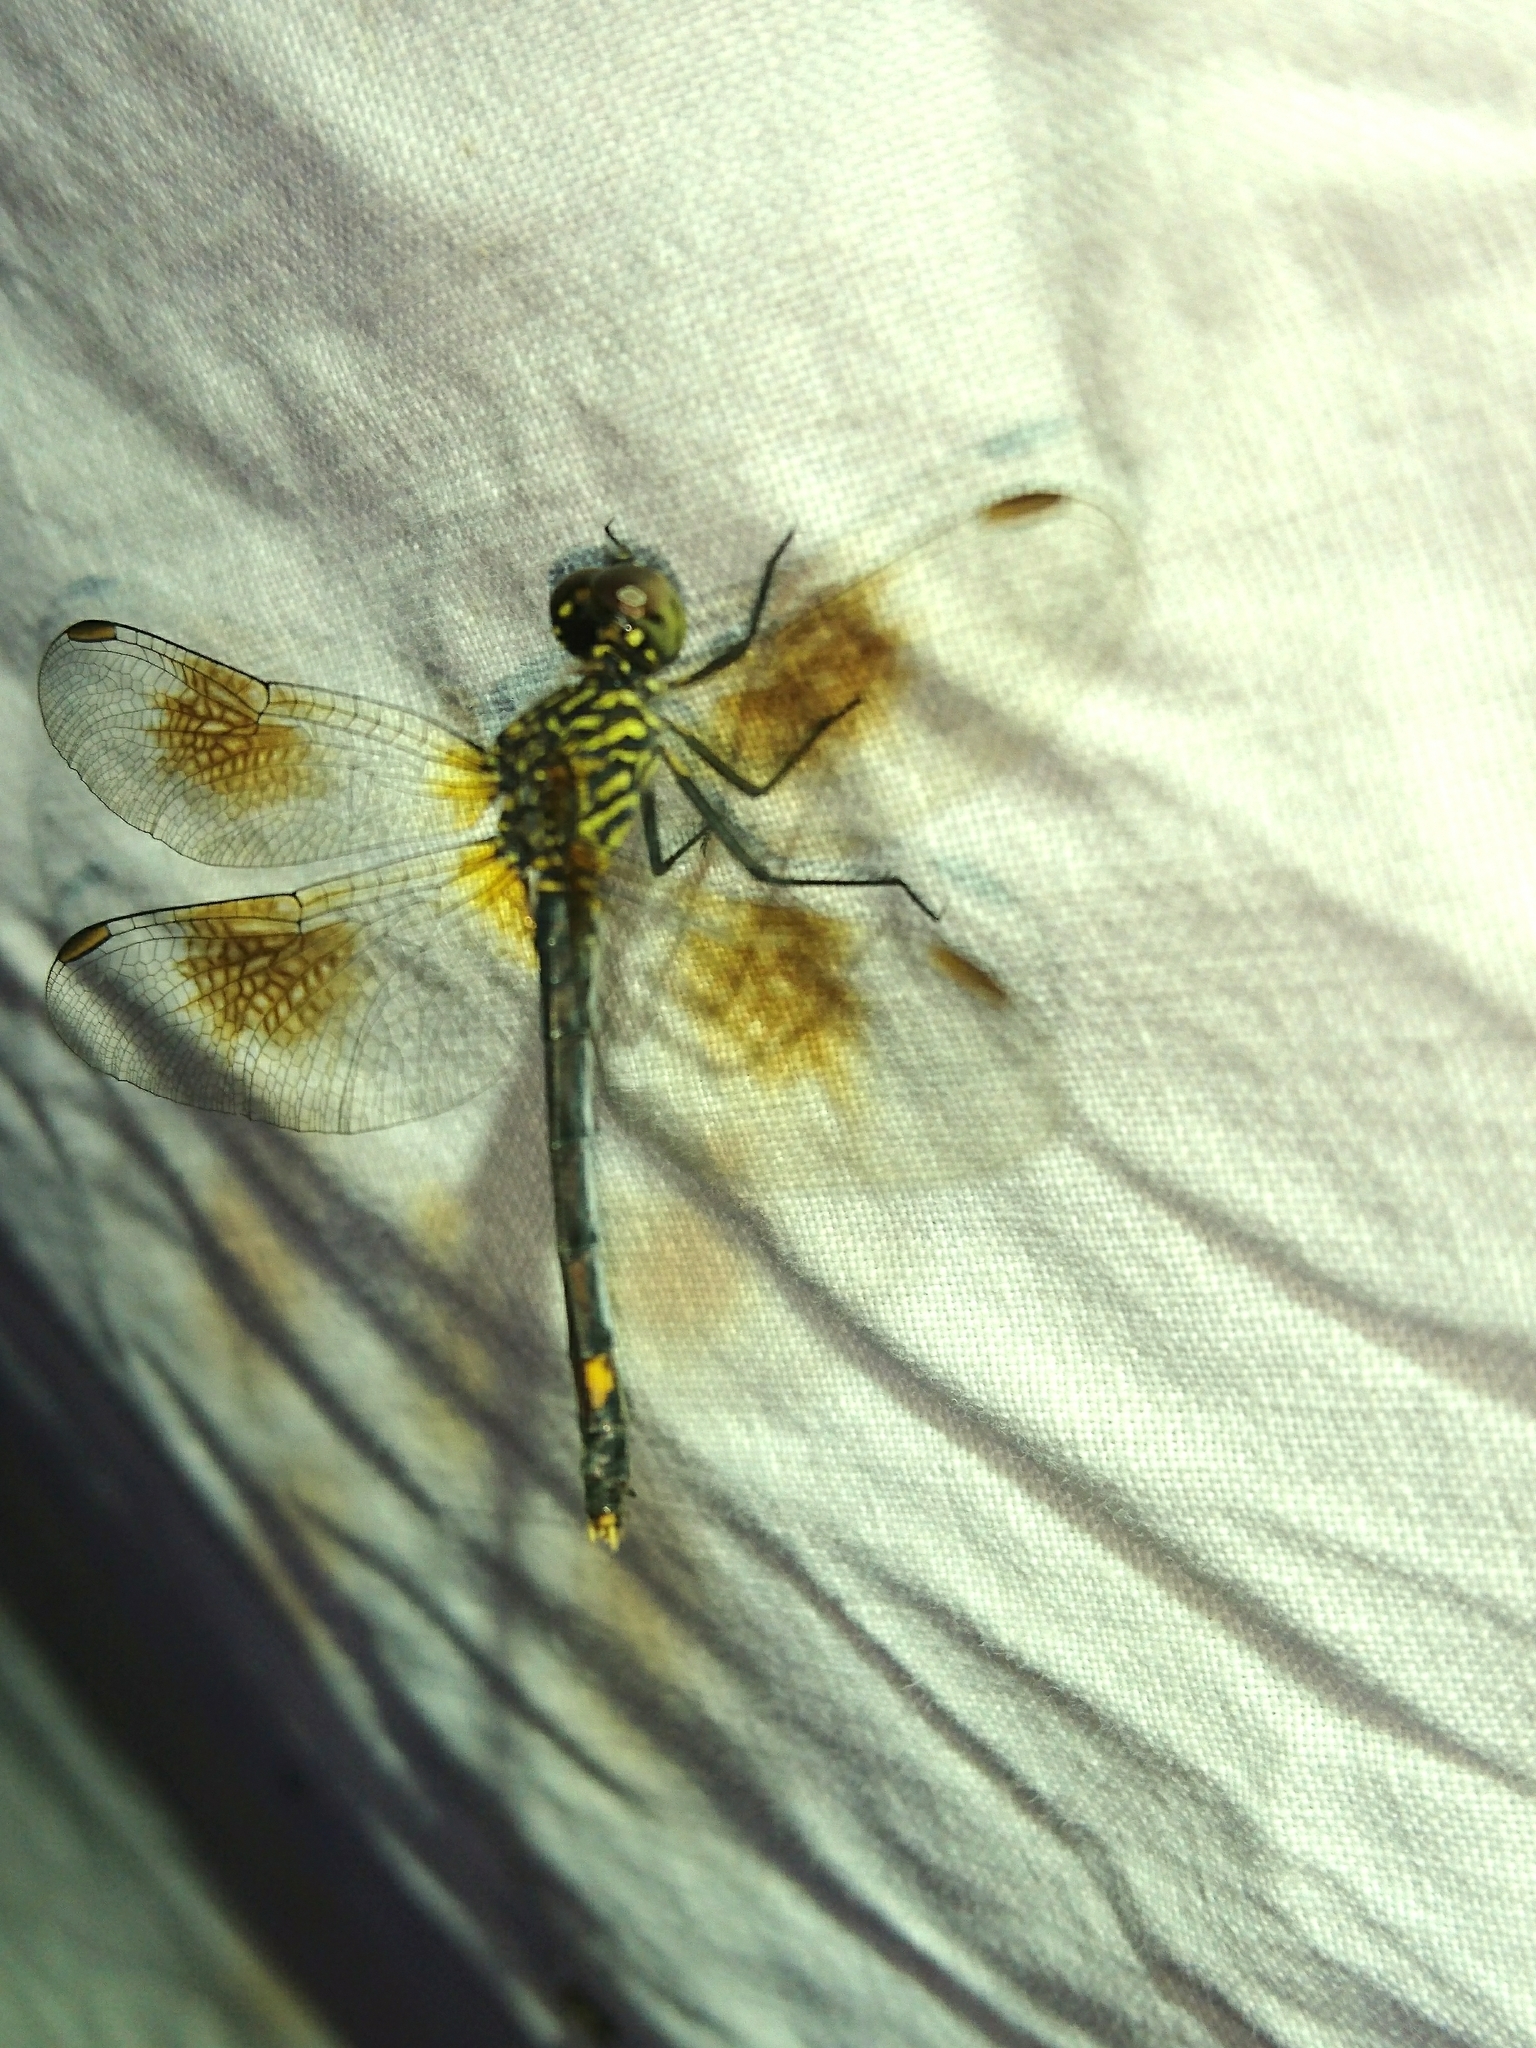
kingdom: Animalia
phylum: Arthropoda
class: Insecta
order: Odonata
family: Libellulidae
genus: Erythrodiplax
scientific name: Erythrodiplax berenice
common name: Seaside dragonlet
